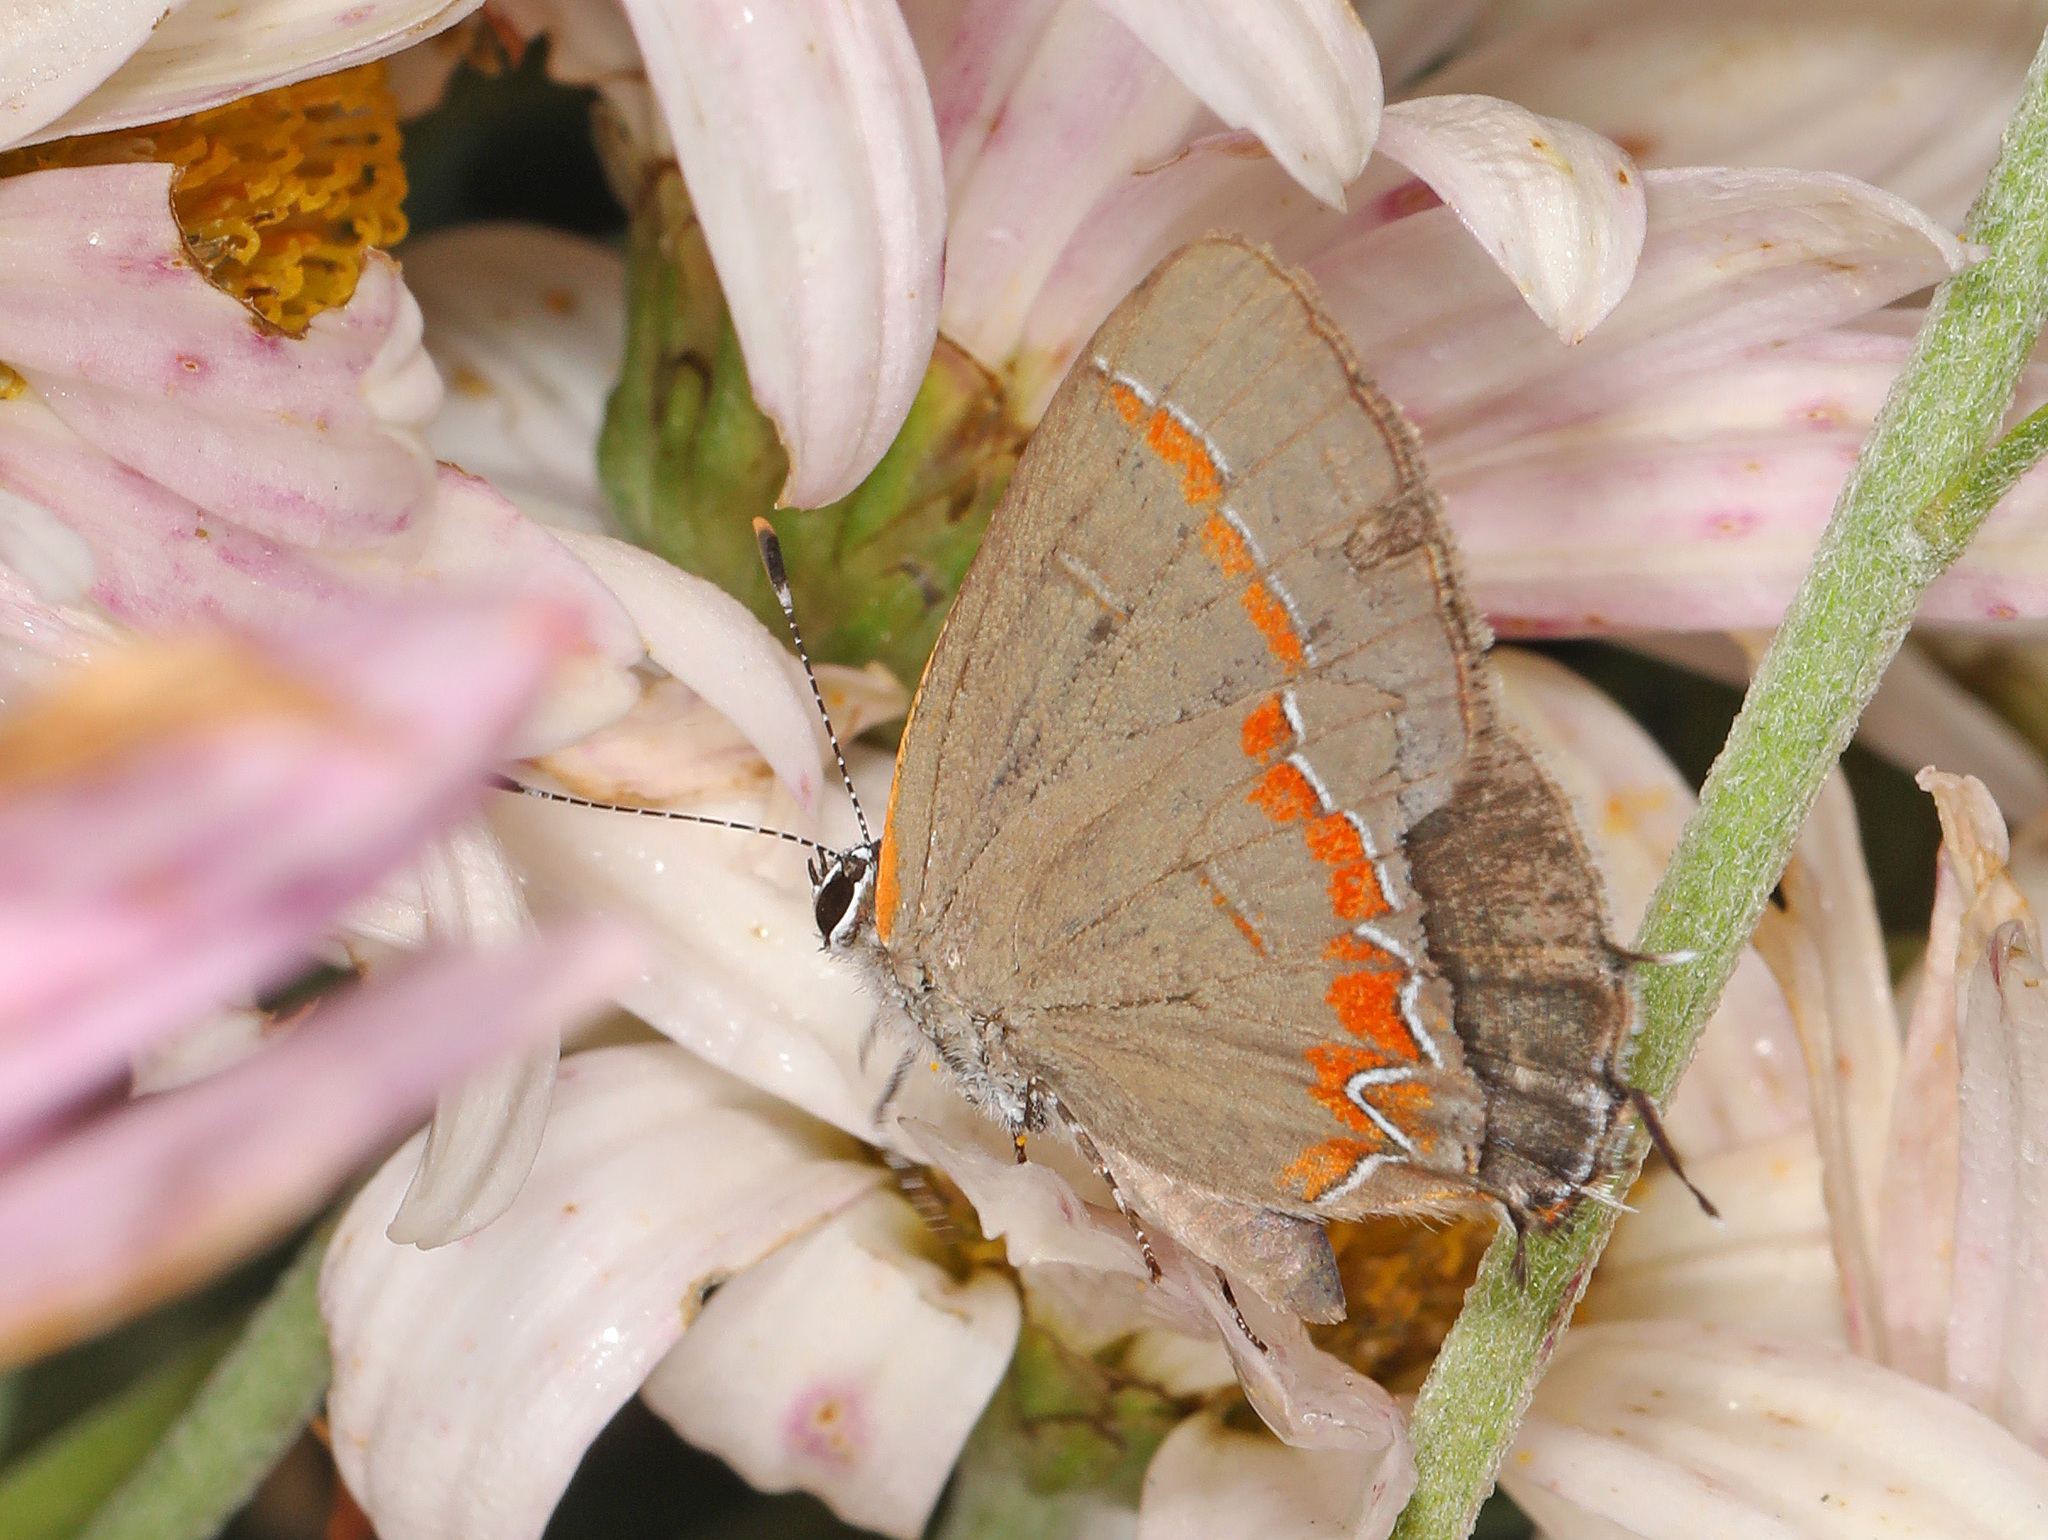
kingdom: Animalia
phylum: Arthropoda
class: Insecta
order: Lepidoptera
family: Lycaenidae
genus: Calycopis
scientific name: Calycopis cecrops
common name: Red-banded hairstreak
